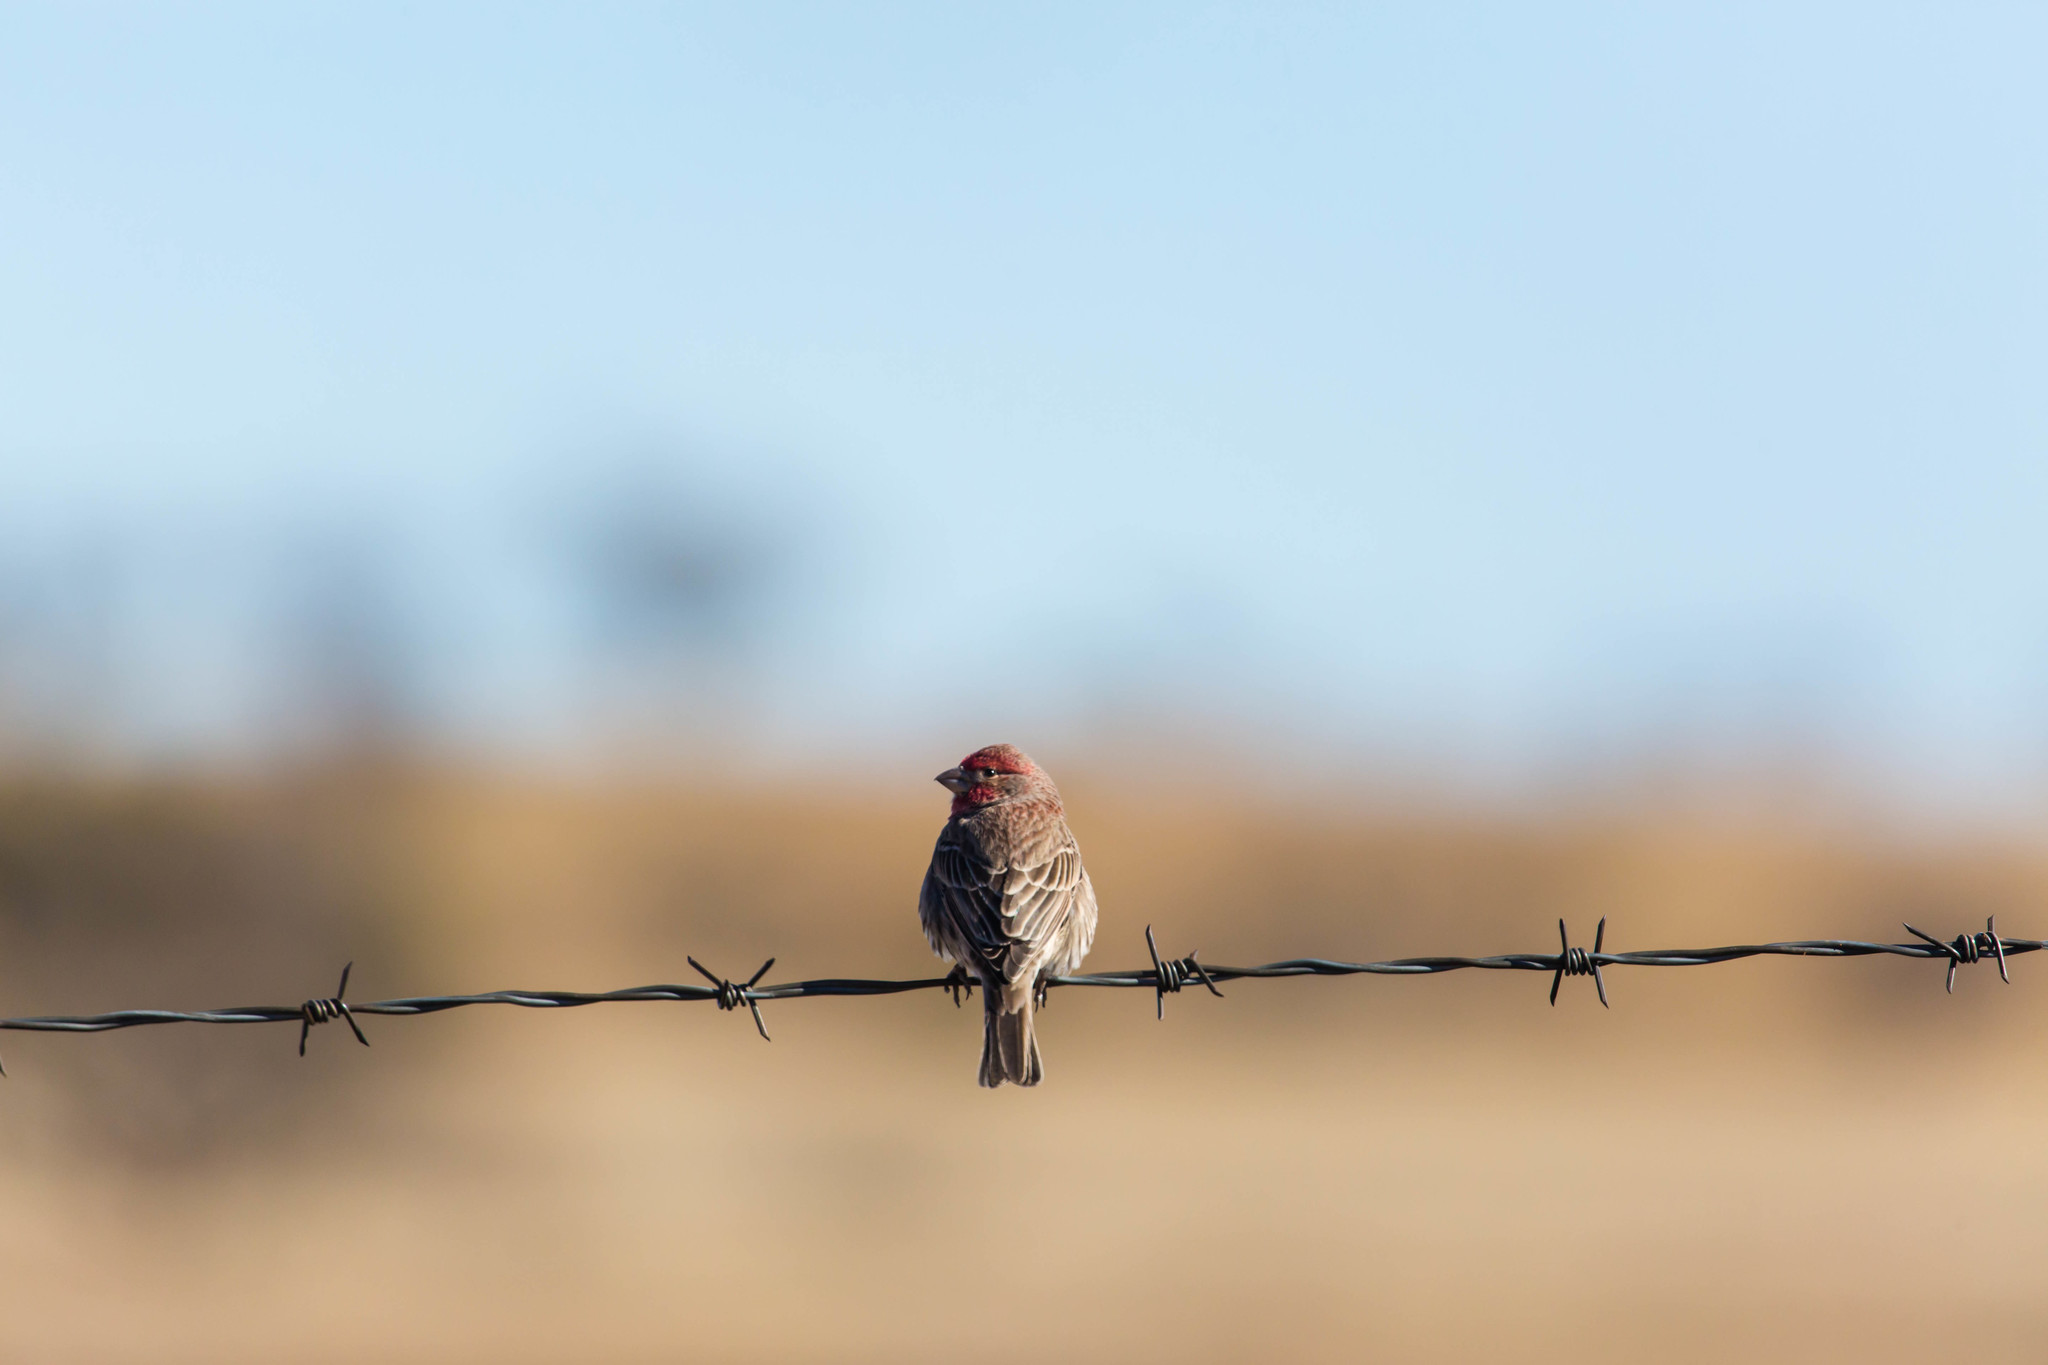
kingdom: Animalia
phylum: Chordata
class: Aves
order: Passeriformes
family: Fringillidae
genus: Haemorhous
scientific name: Haemorhous mexicanus
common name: House finch
